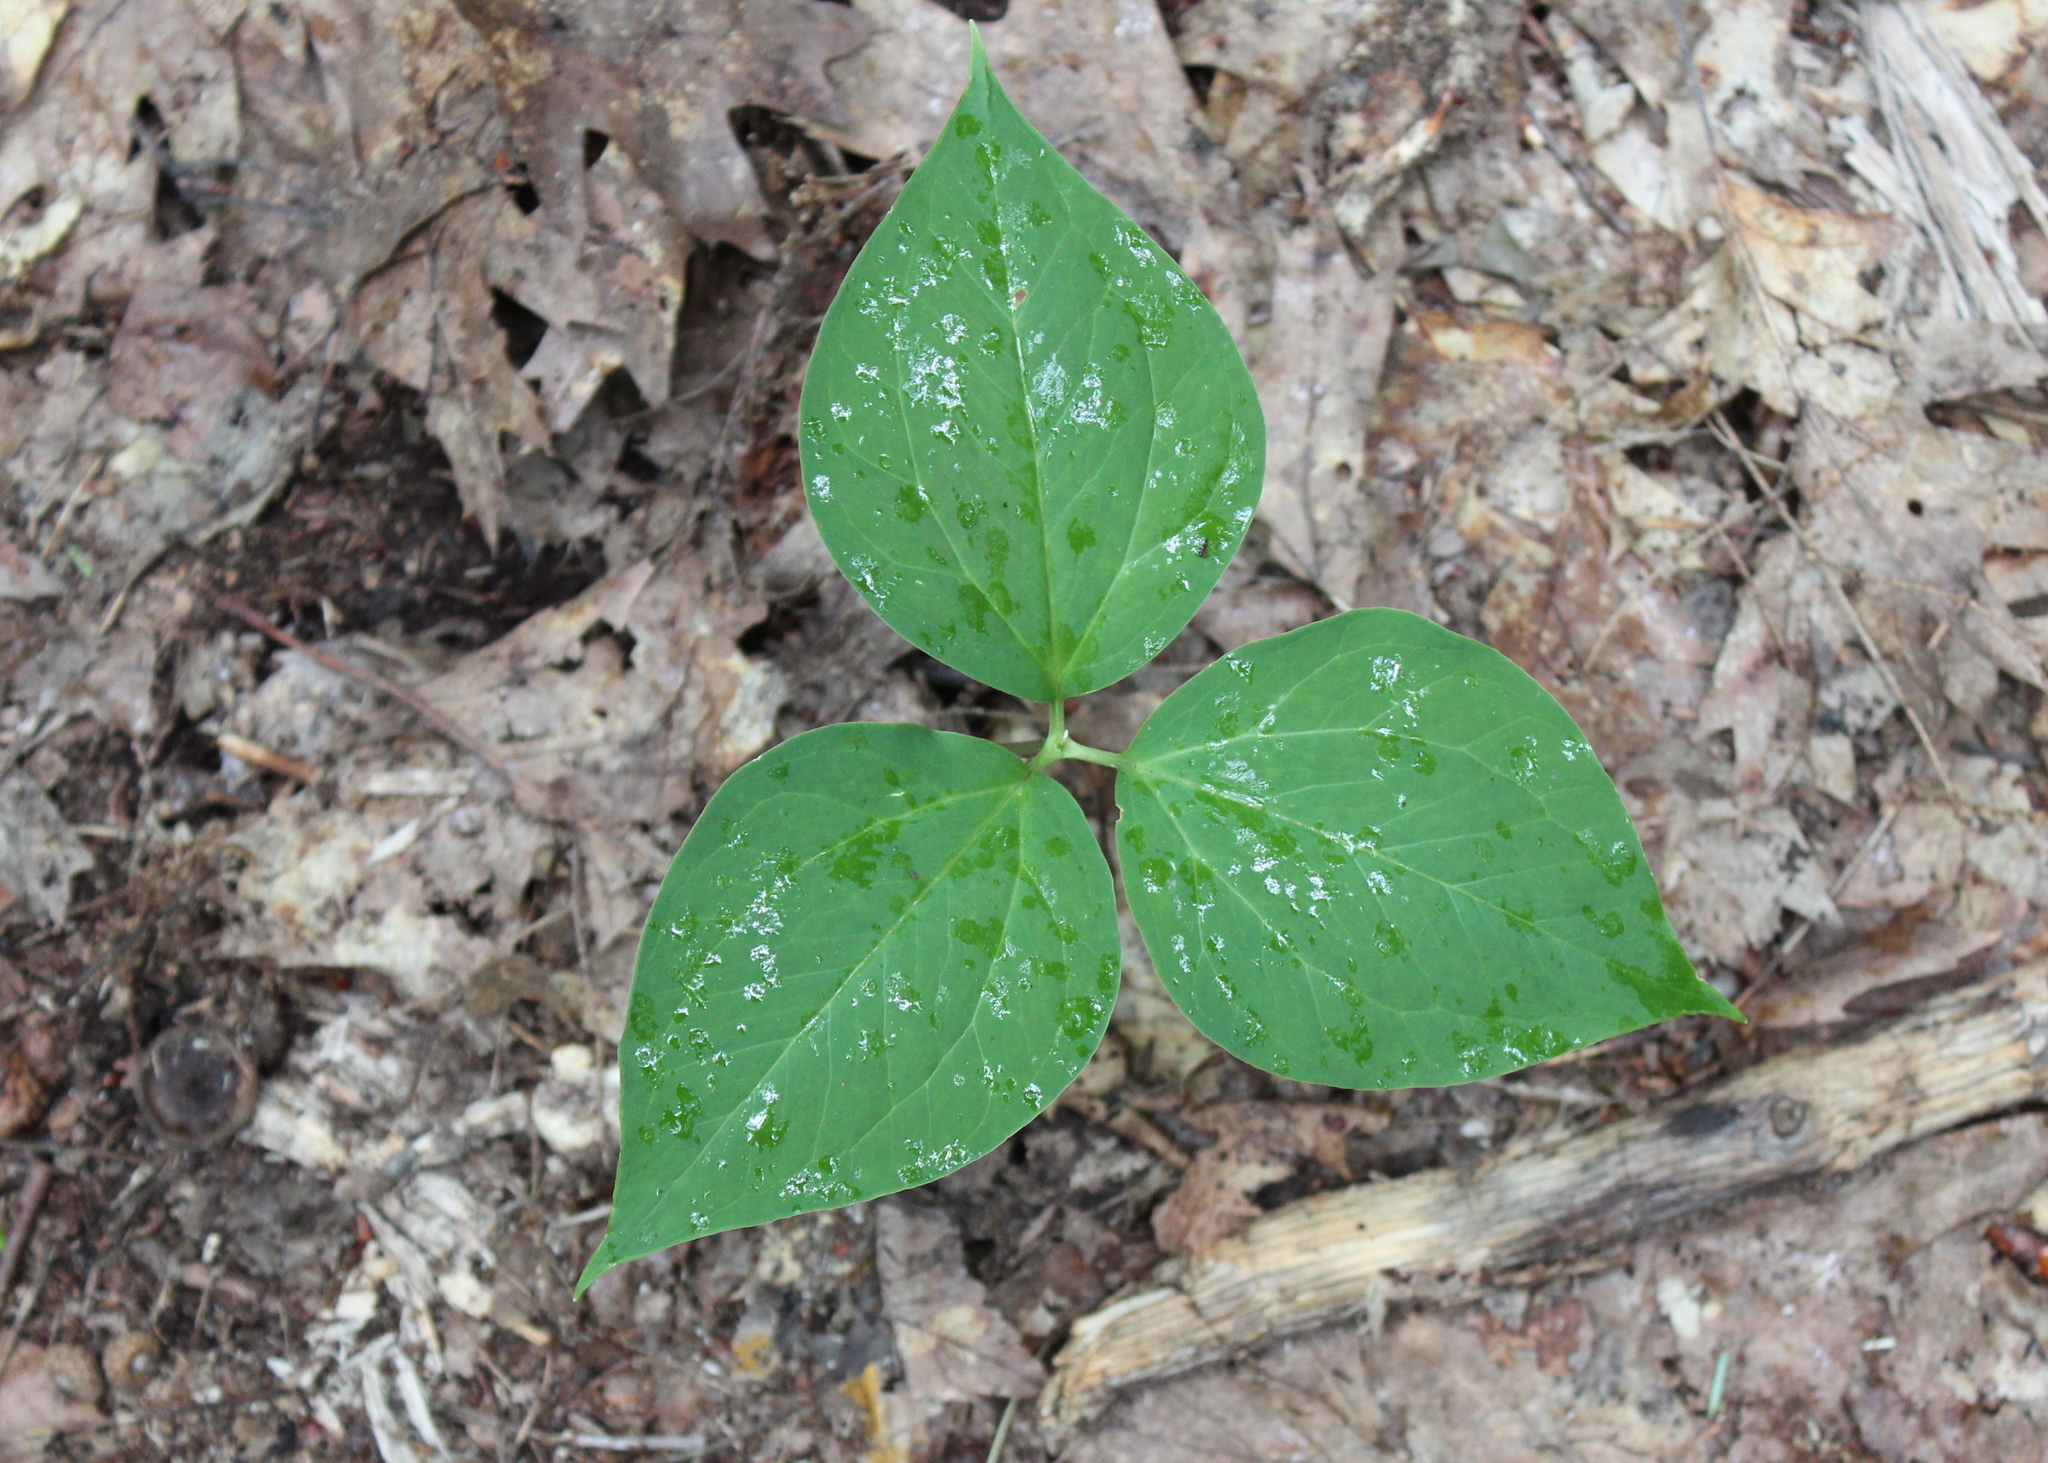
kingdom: Plantae
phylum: Tracheophyta
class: Liliopsida
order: Liliales
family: Melanthiaceae
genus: Trillium
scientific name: Trillium undulatum
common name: Paint trillium
